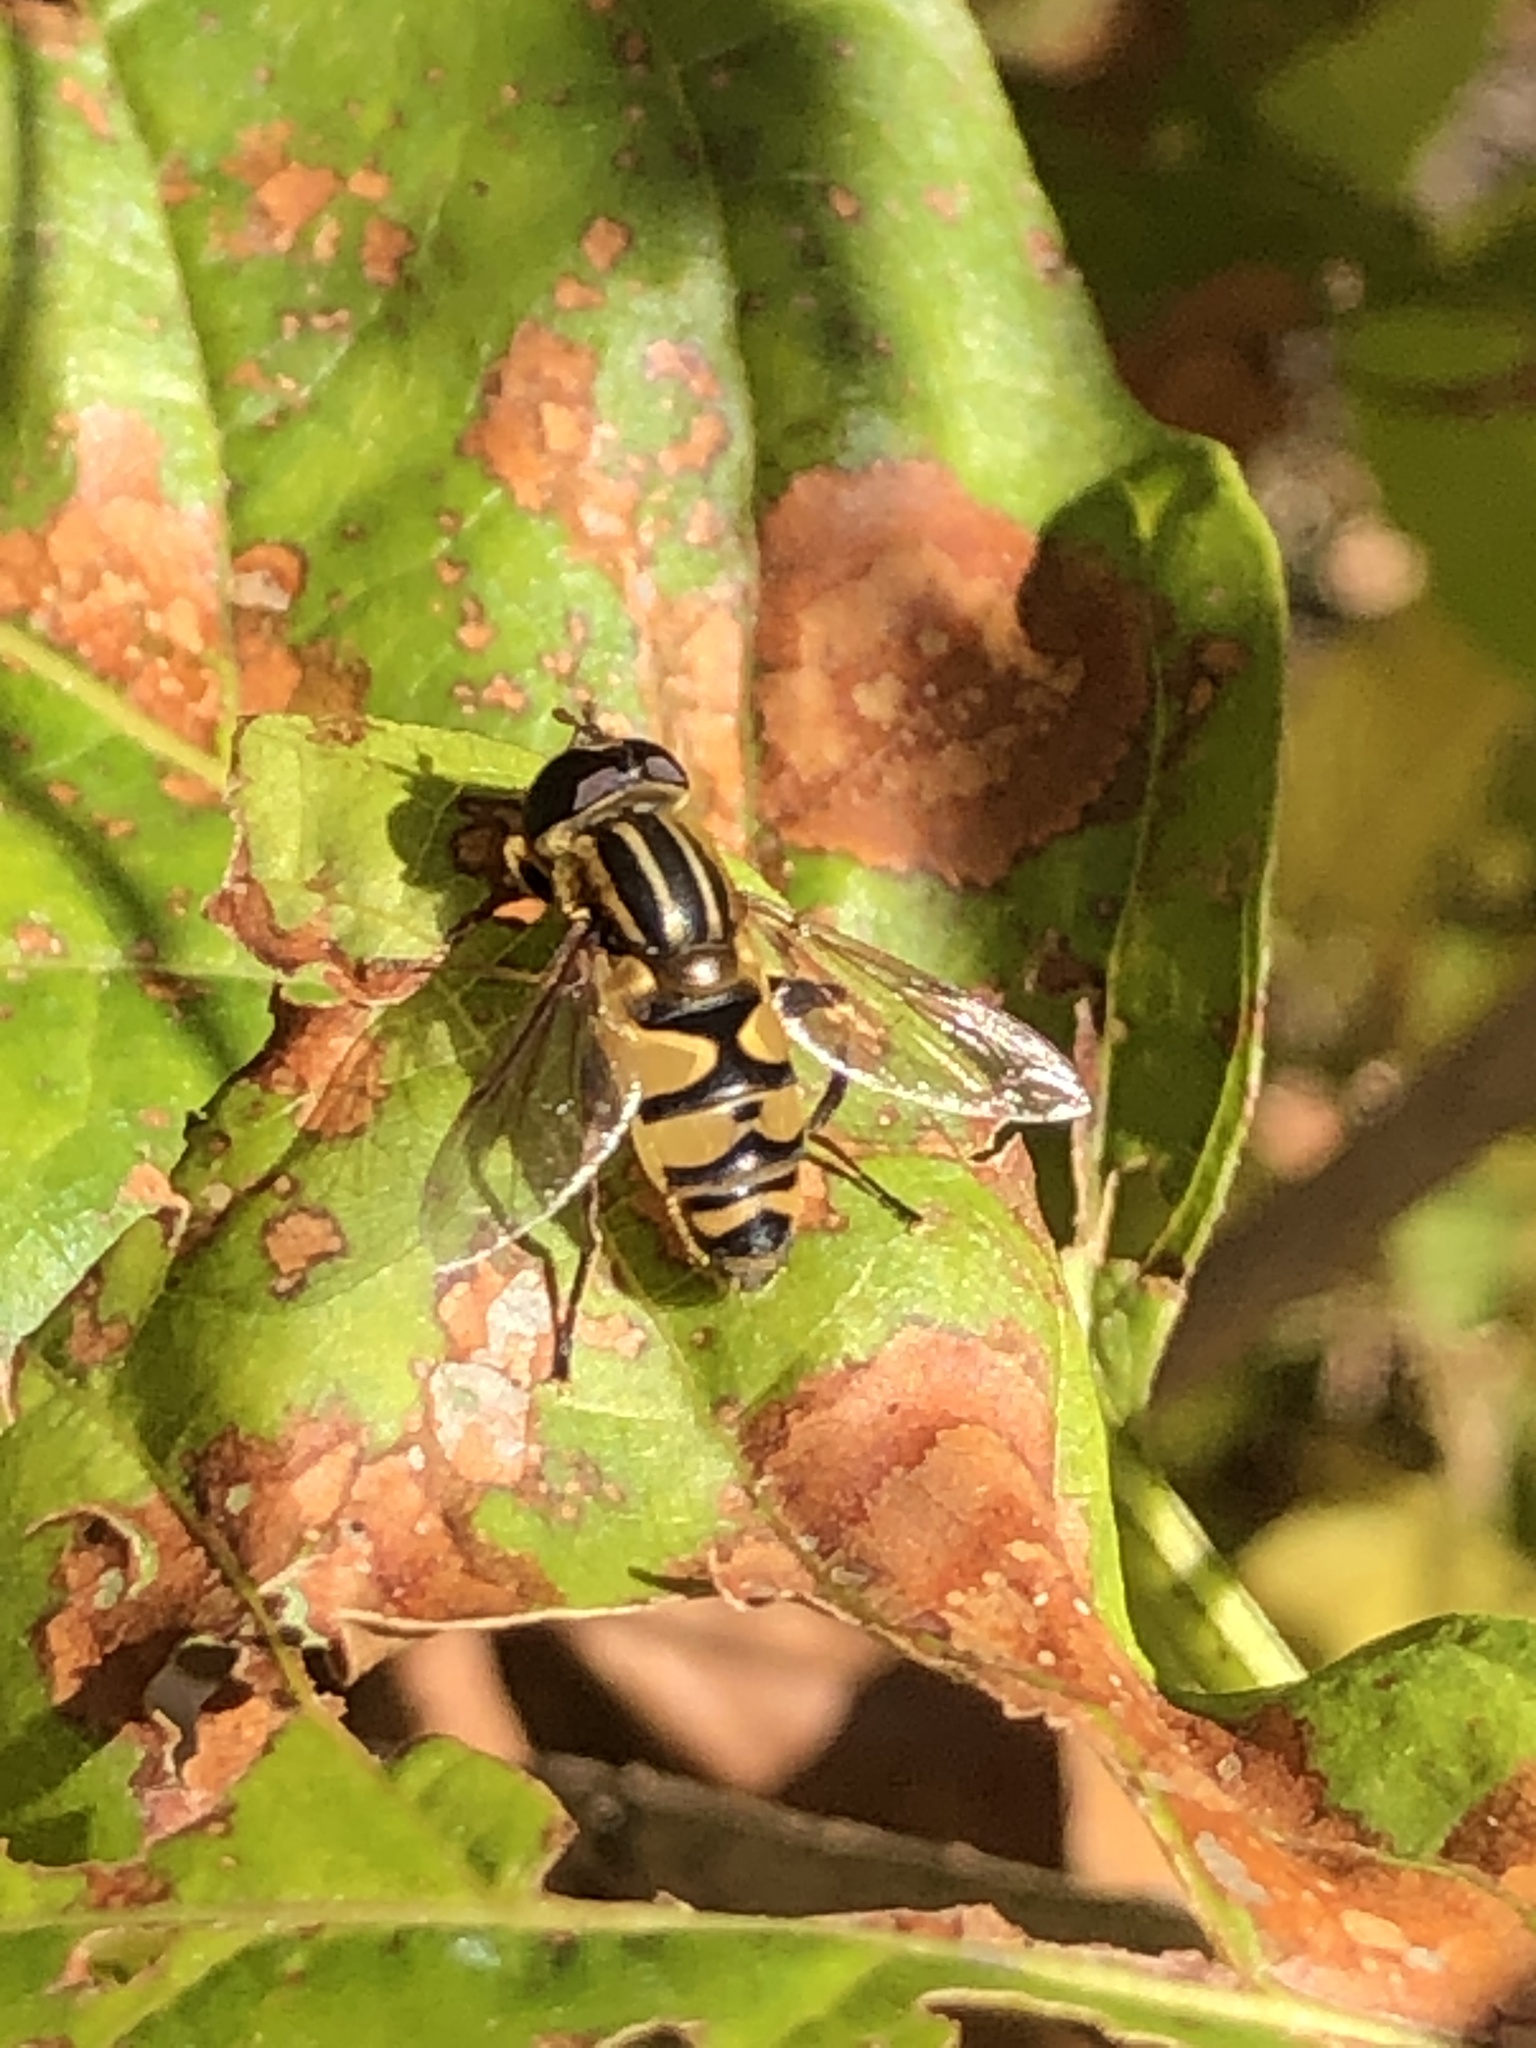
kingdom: Animalia
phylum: Arthropoda
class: Insecta
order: Diptera
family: Syrphidae
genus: Helophilus
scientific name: Helophilus fasciatus
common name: Narrow-headed marsh fly
